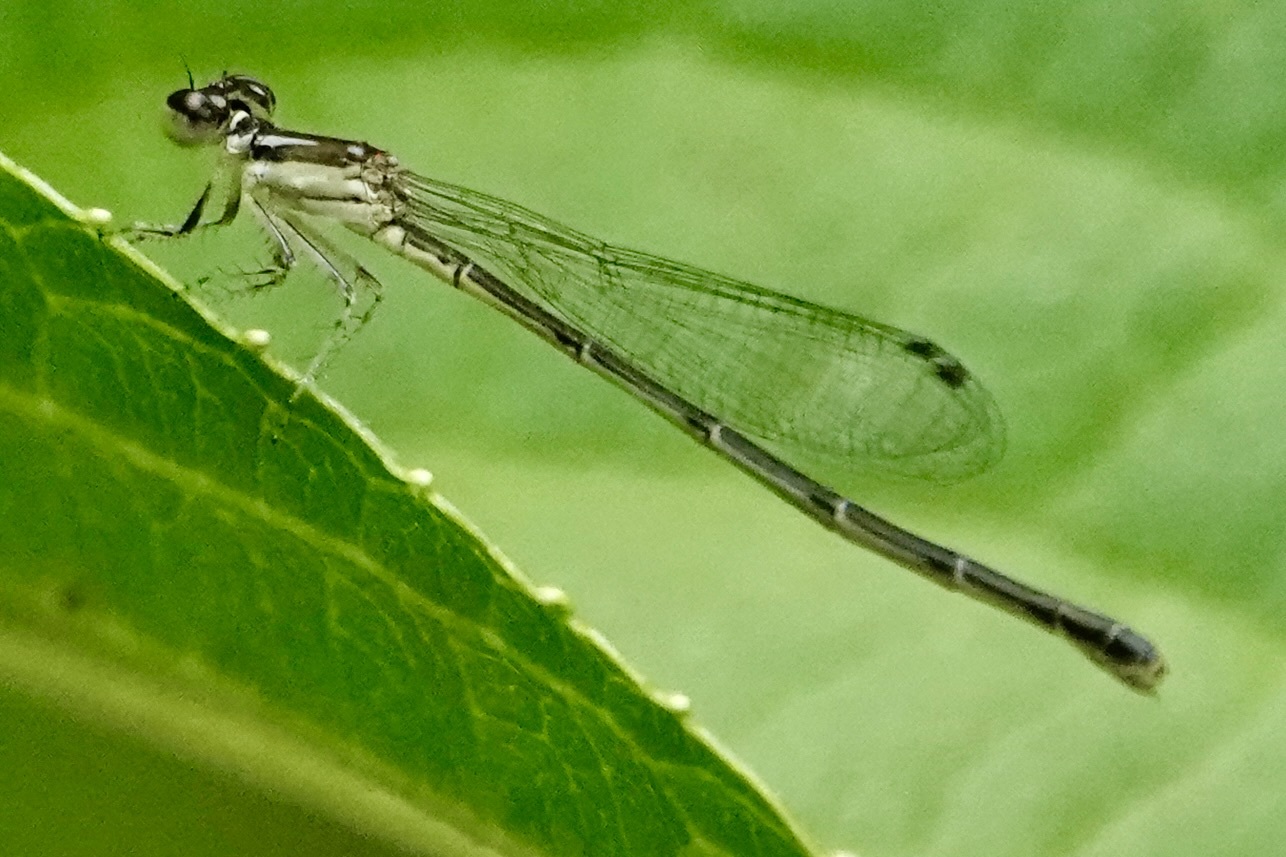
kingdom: Animalia
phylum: Arthropoda
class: Insecta
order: Odonata
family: Coenagrionidae
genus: Ischnura
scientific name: Ischnura posita
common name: Fragile forktail
